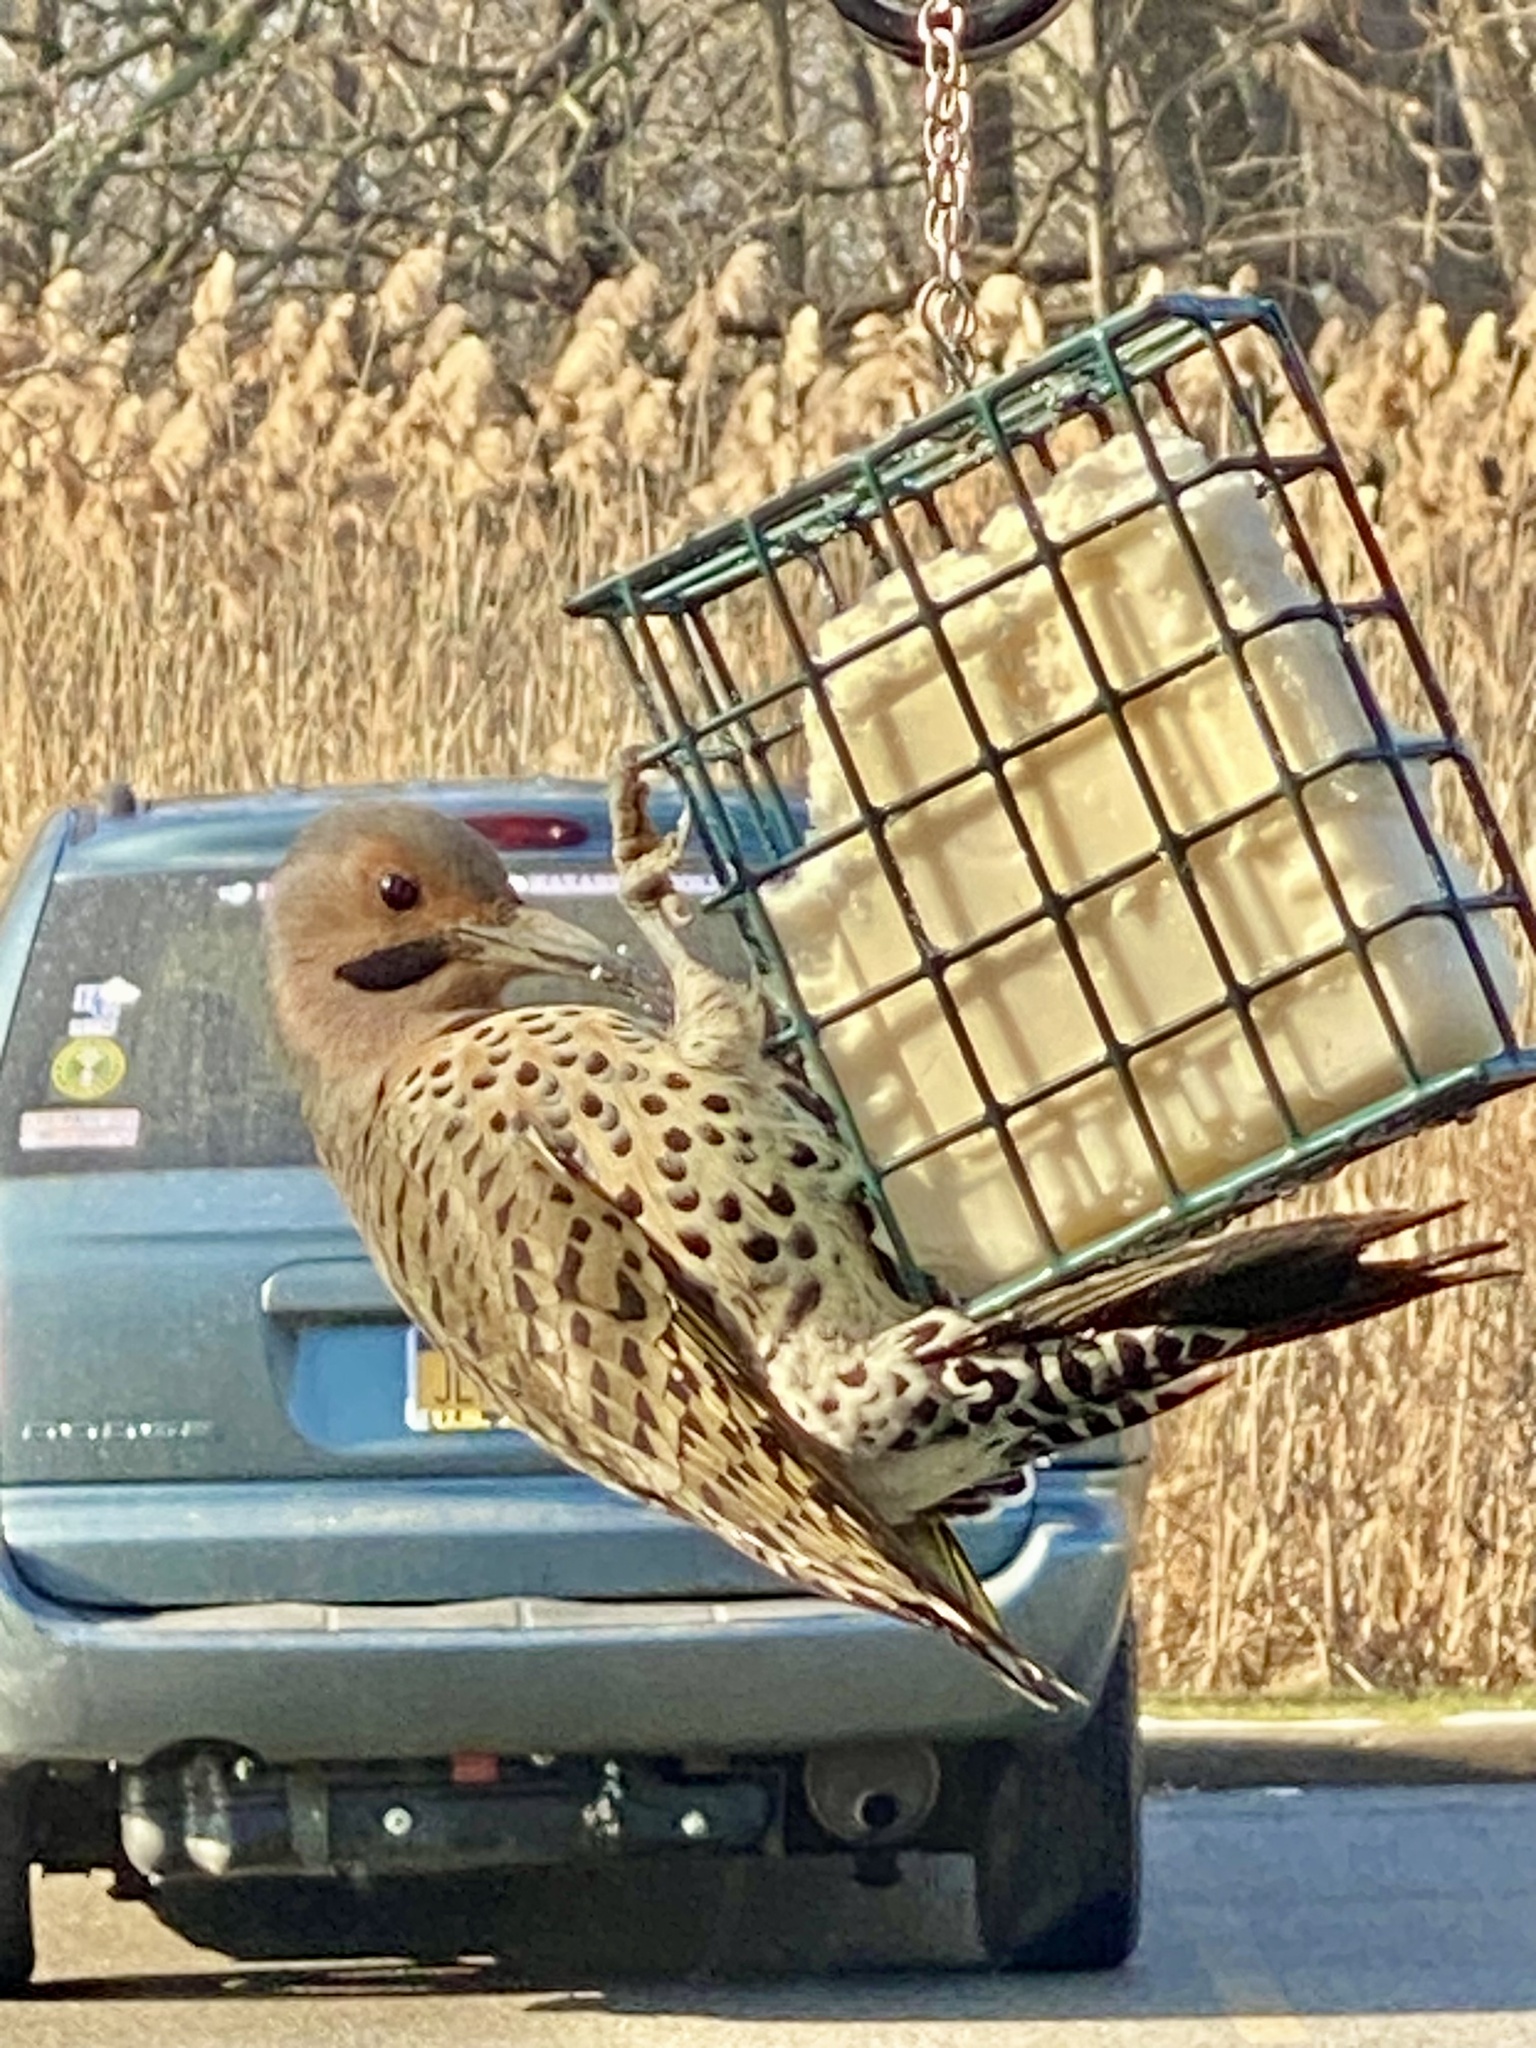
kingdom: Animalia
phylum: Chordata
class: Aves
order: Piciformes
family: Picidae
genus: Colaptes
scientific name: Colaptes auratus
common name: Northern flicker
